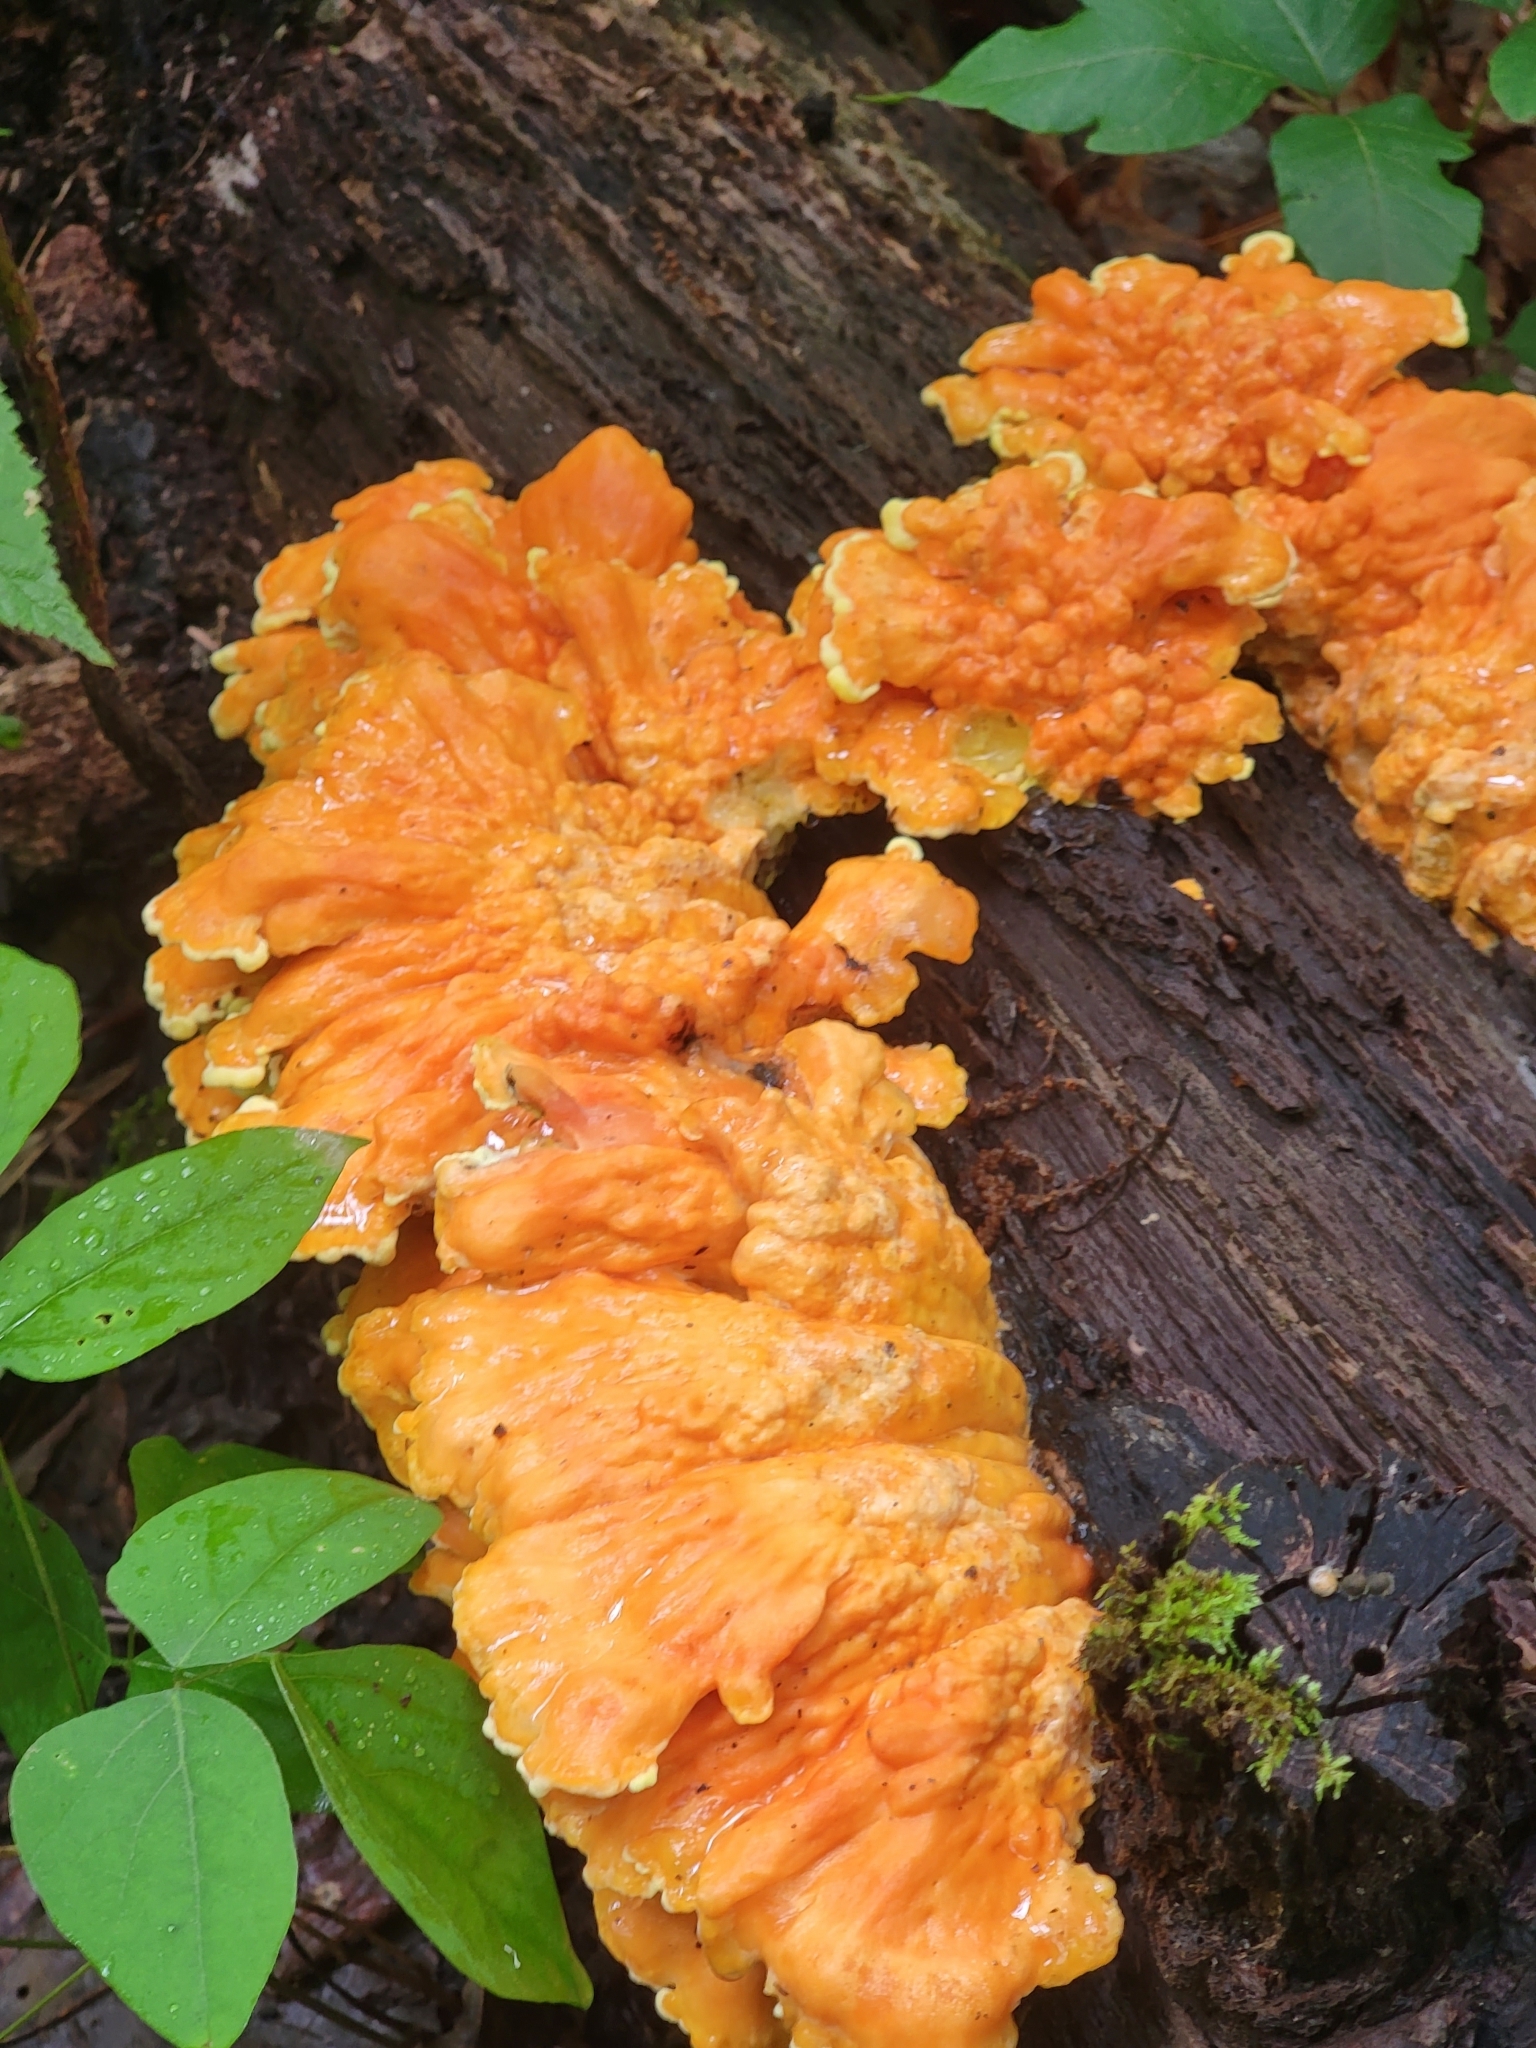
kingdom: Fungi
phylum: Basidiomycota
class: Agaricomycetes
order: Polyporales
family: Laetiporaceae
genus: Laetiporus
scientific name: Laetiporus sulphureus
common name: Chicken of the woods
